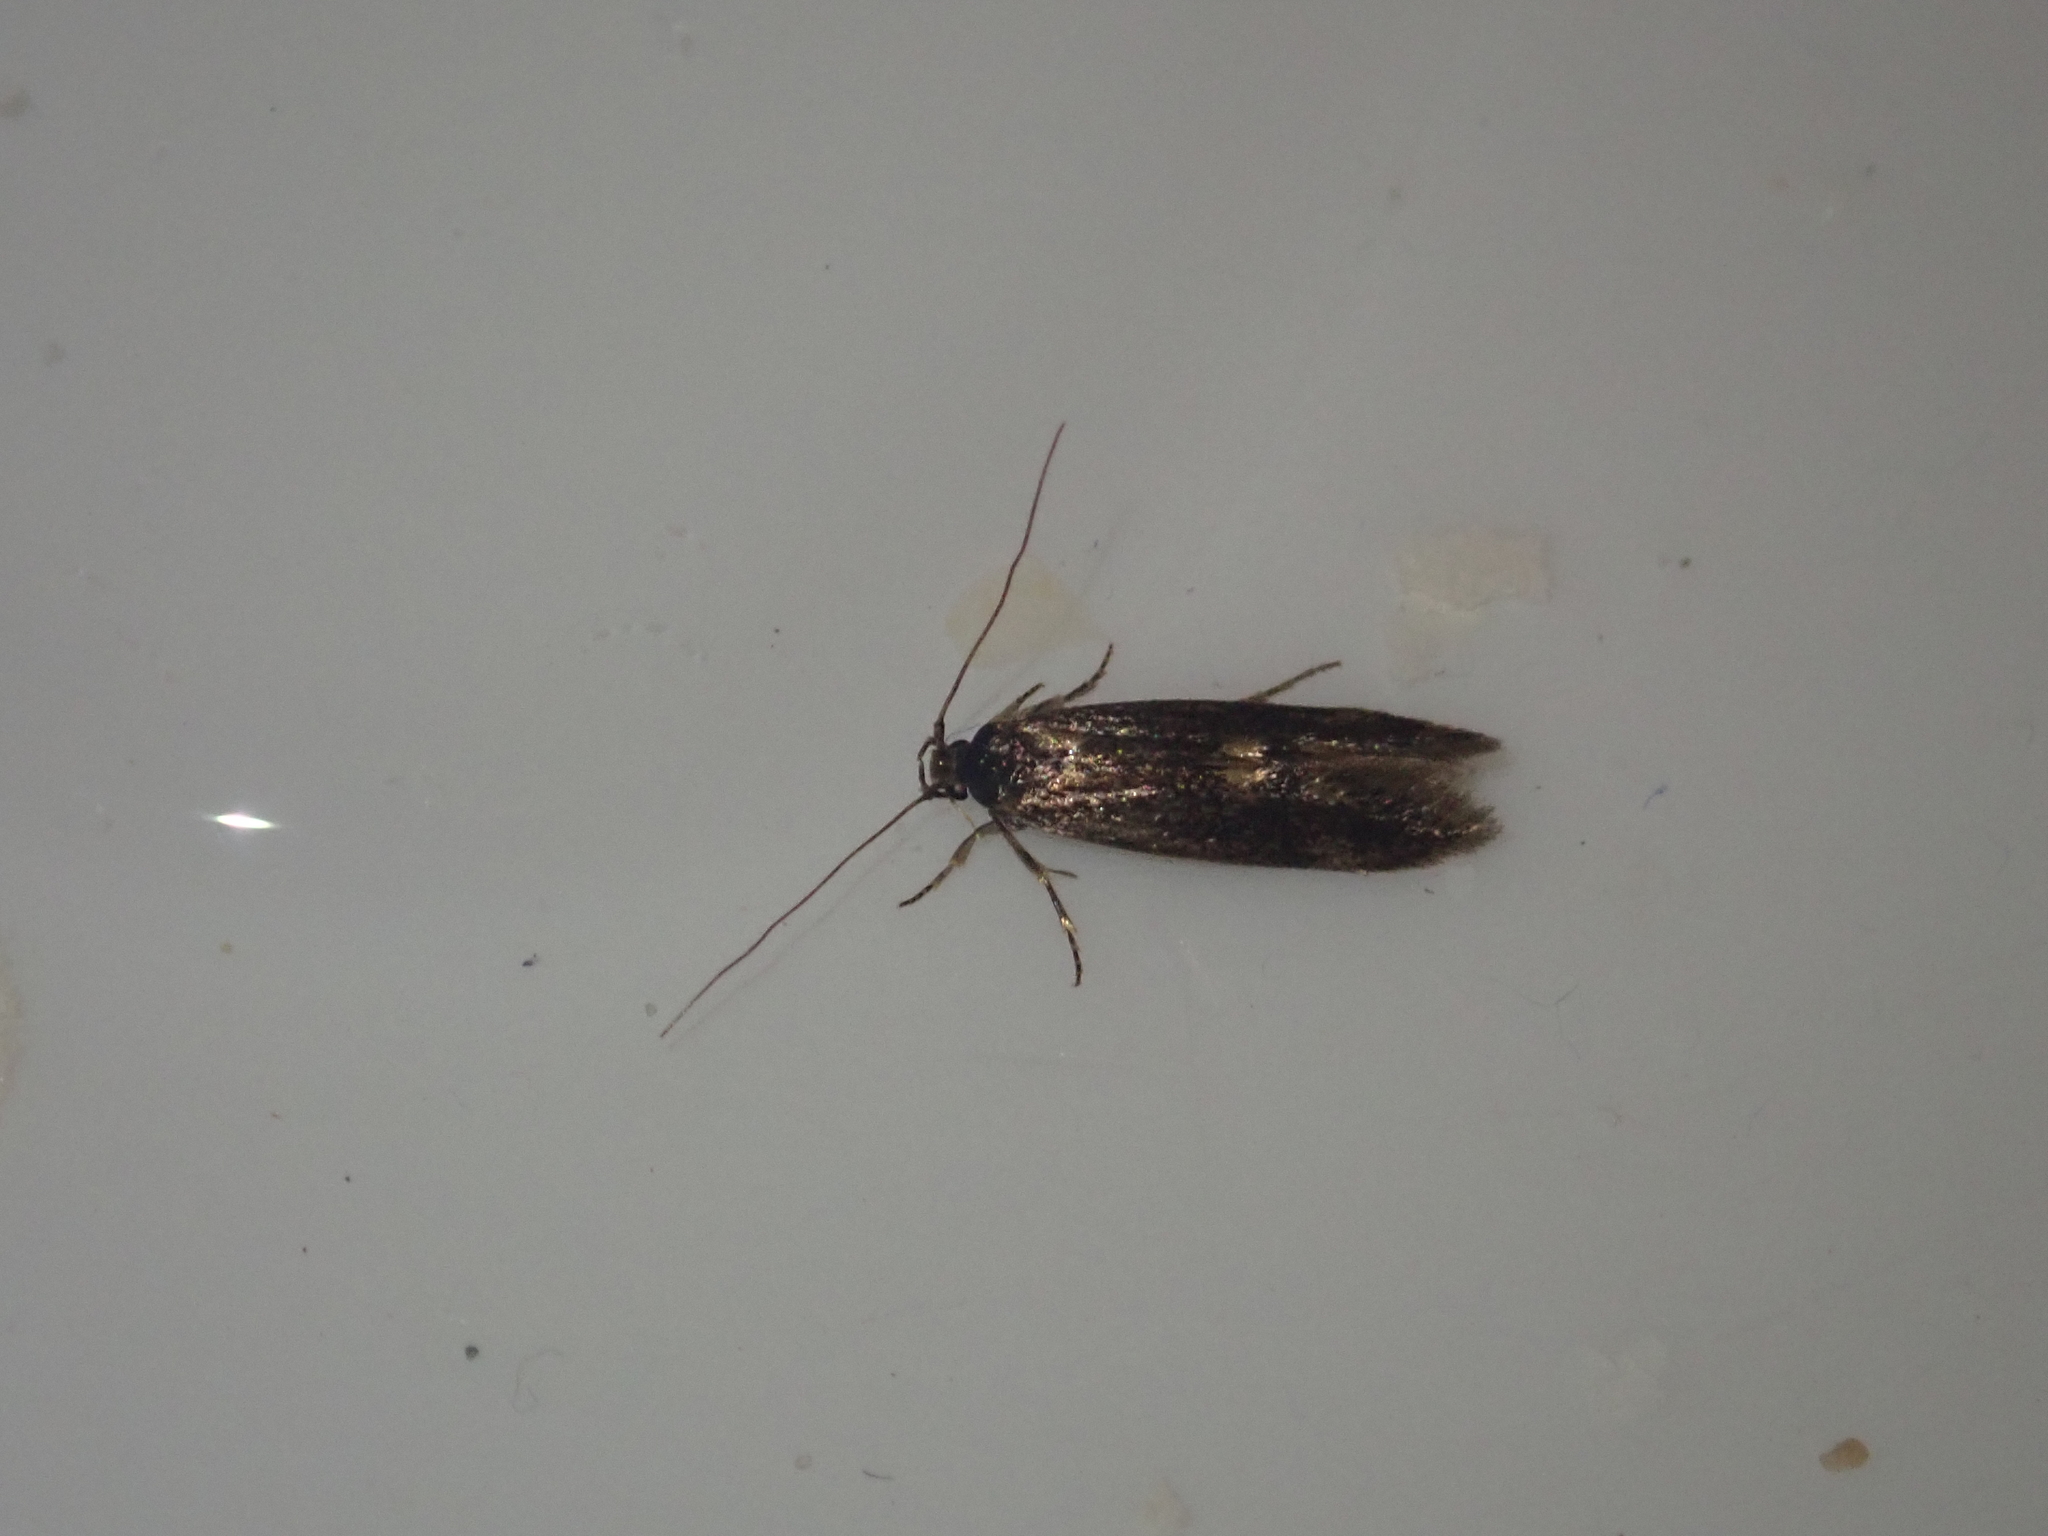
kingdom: Animalia
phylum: Arthropoda
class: Insecta
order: Lepidoptera
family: Tineidae
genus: Opogona
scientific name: Opogona omoscopa
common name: Moth
